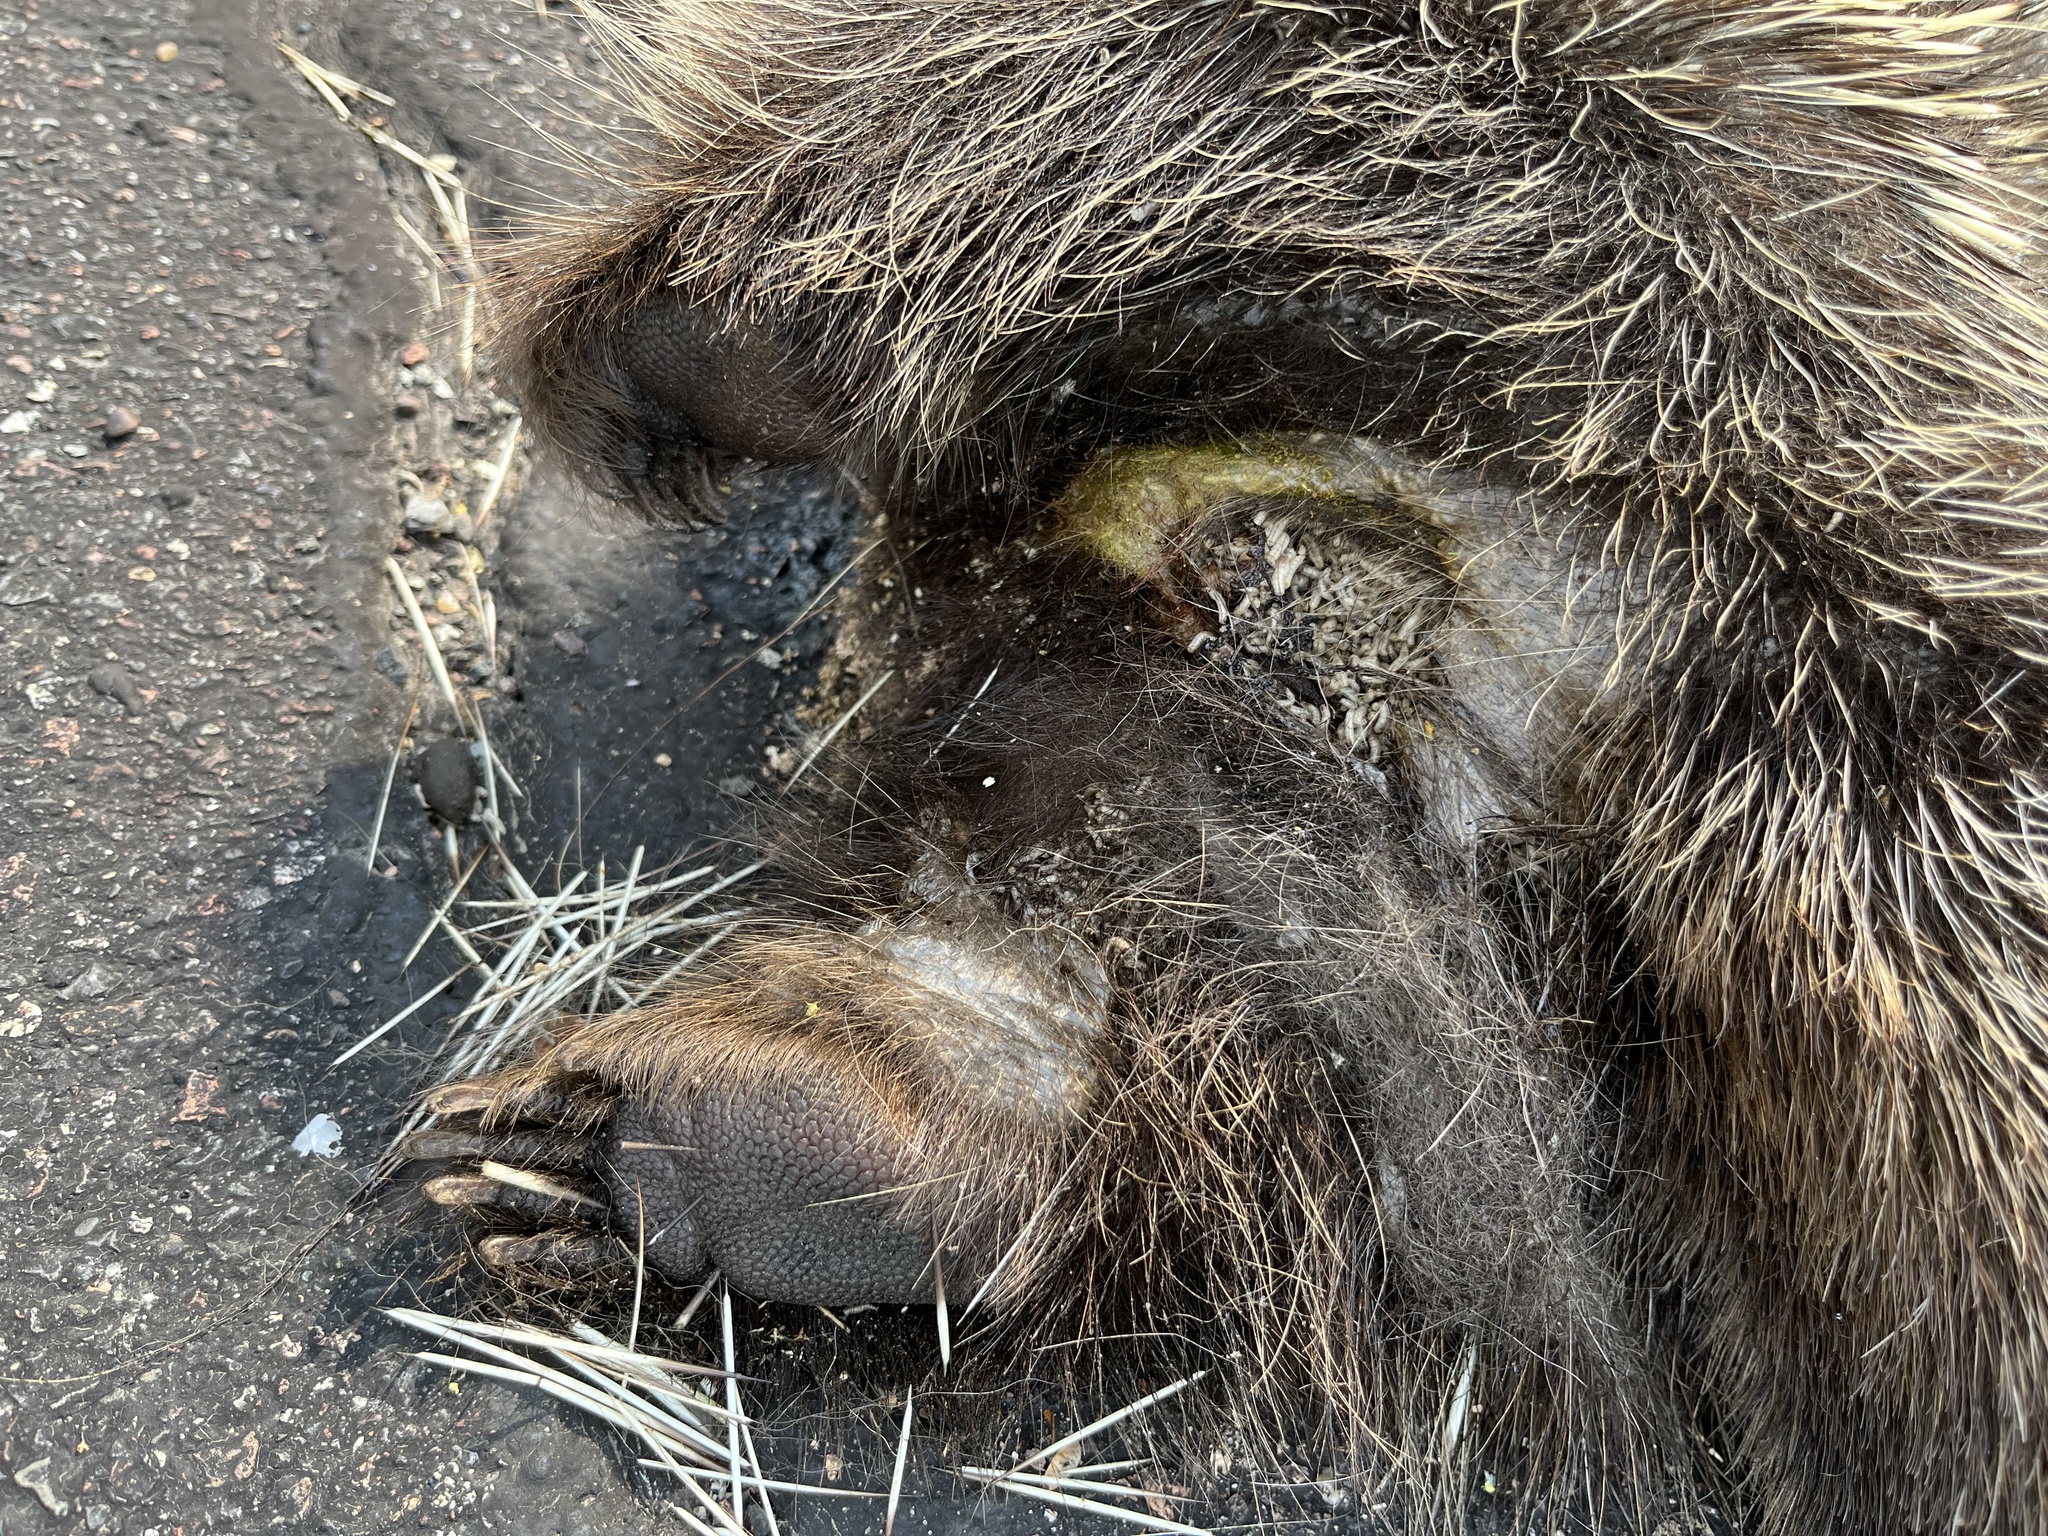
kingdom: Animalia
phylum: Chordata
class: Mammalia
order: Rodentia
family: Erethizontidae
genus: Erethizon
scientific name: Erethizon dorsatus
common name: North american porcupine
